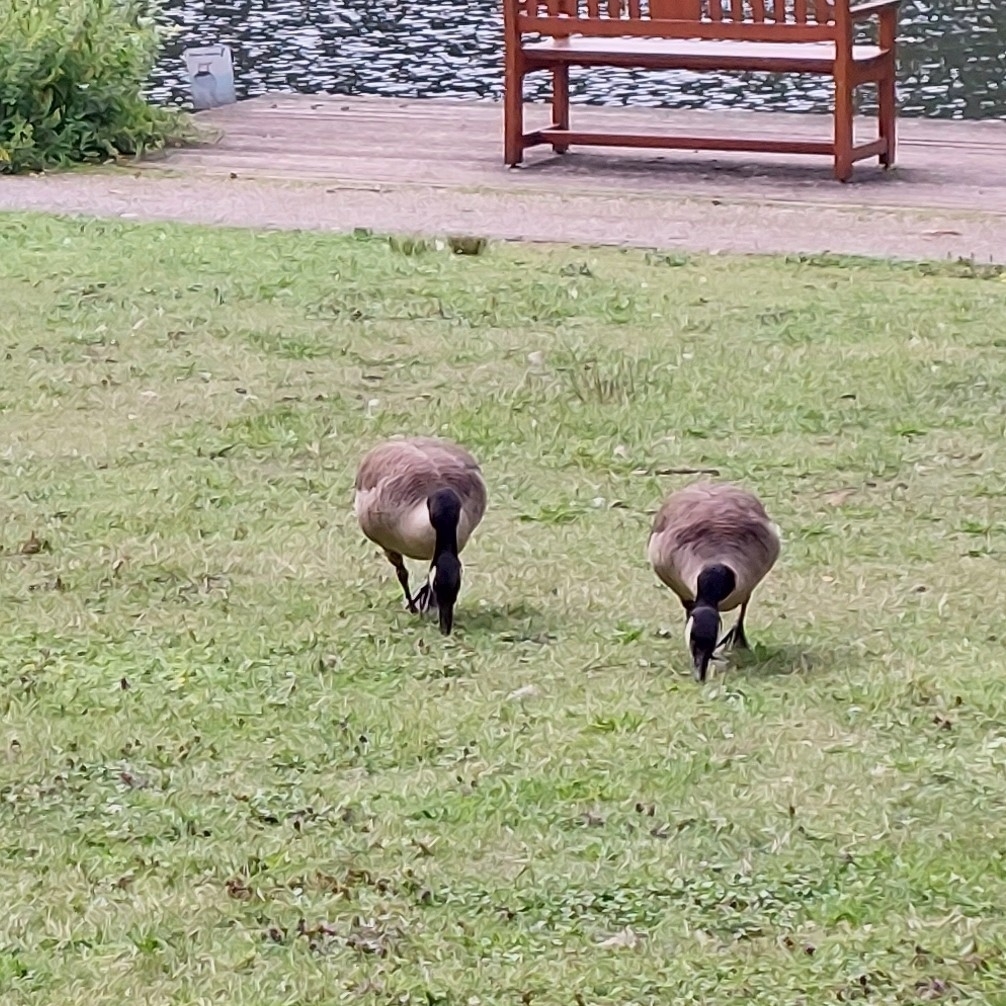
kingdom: Animalia
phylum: Chordata
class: Aves
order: Anseriformes
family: Anatidae
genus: Branta
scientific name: Branta canadensis
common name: Canada goose
